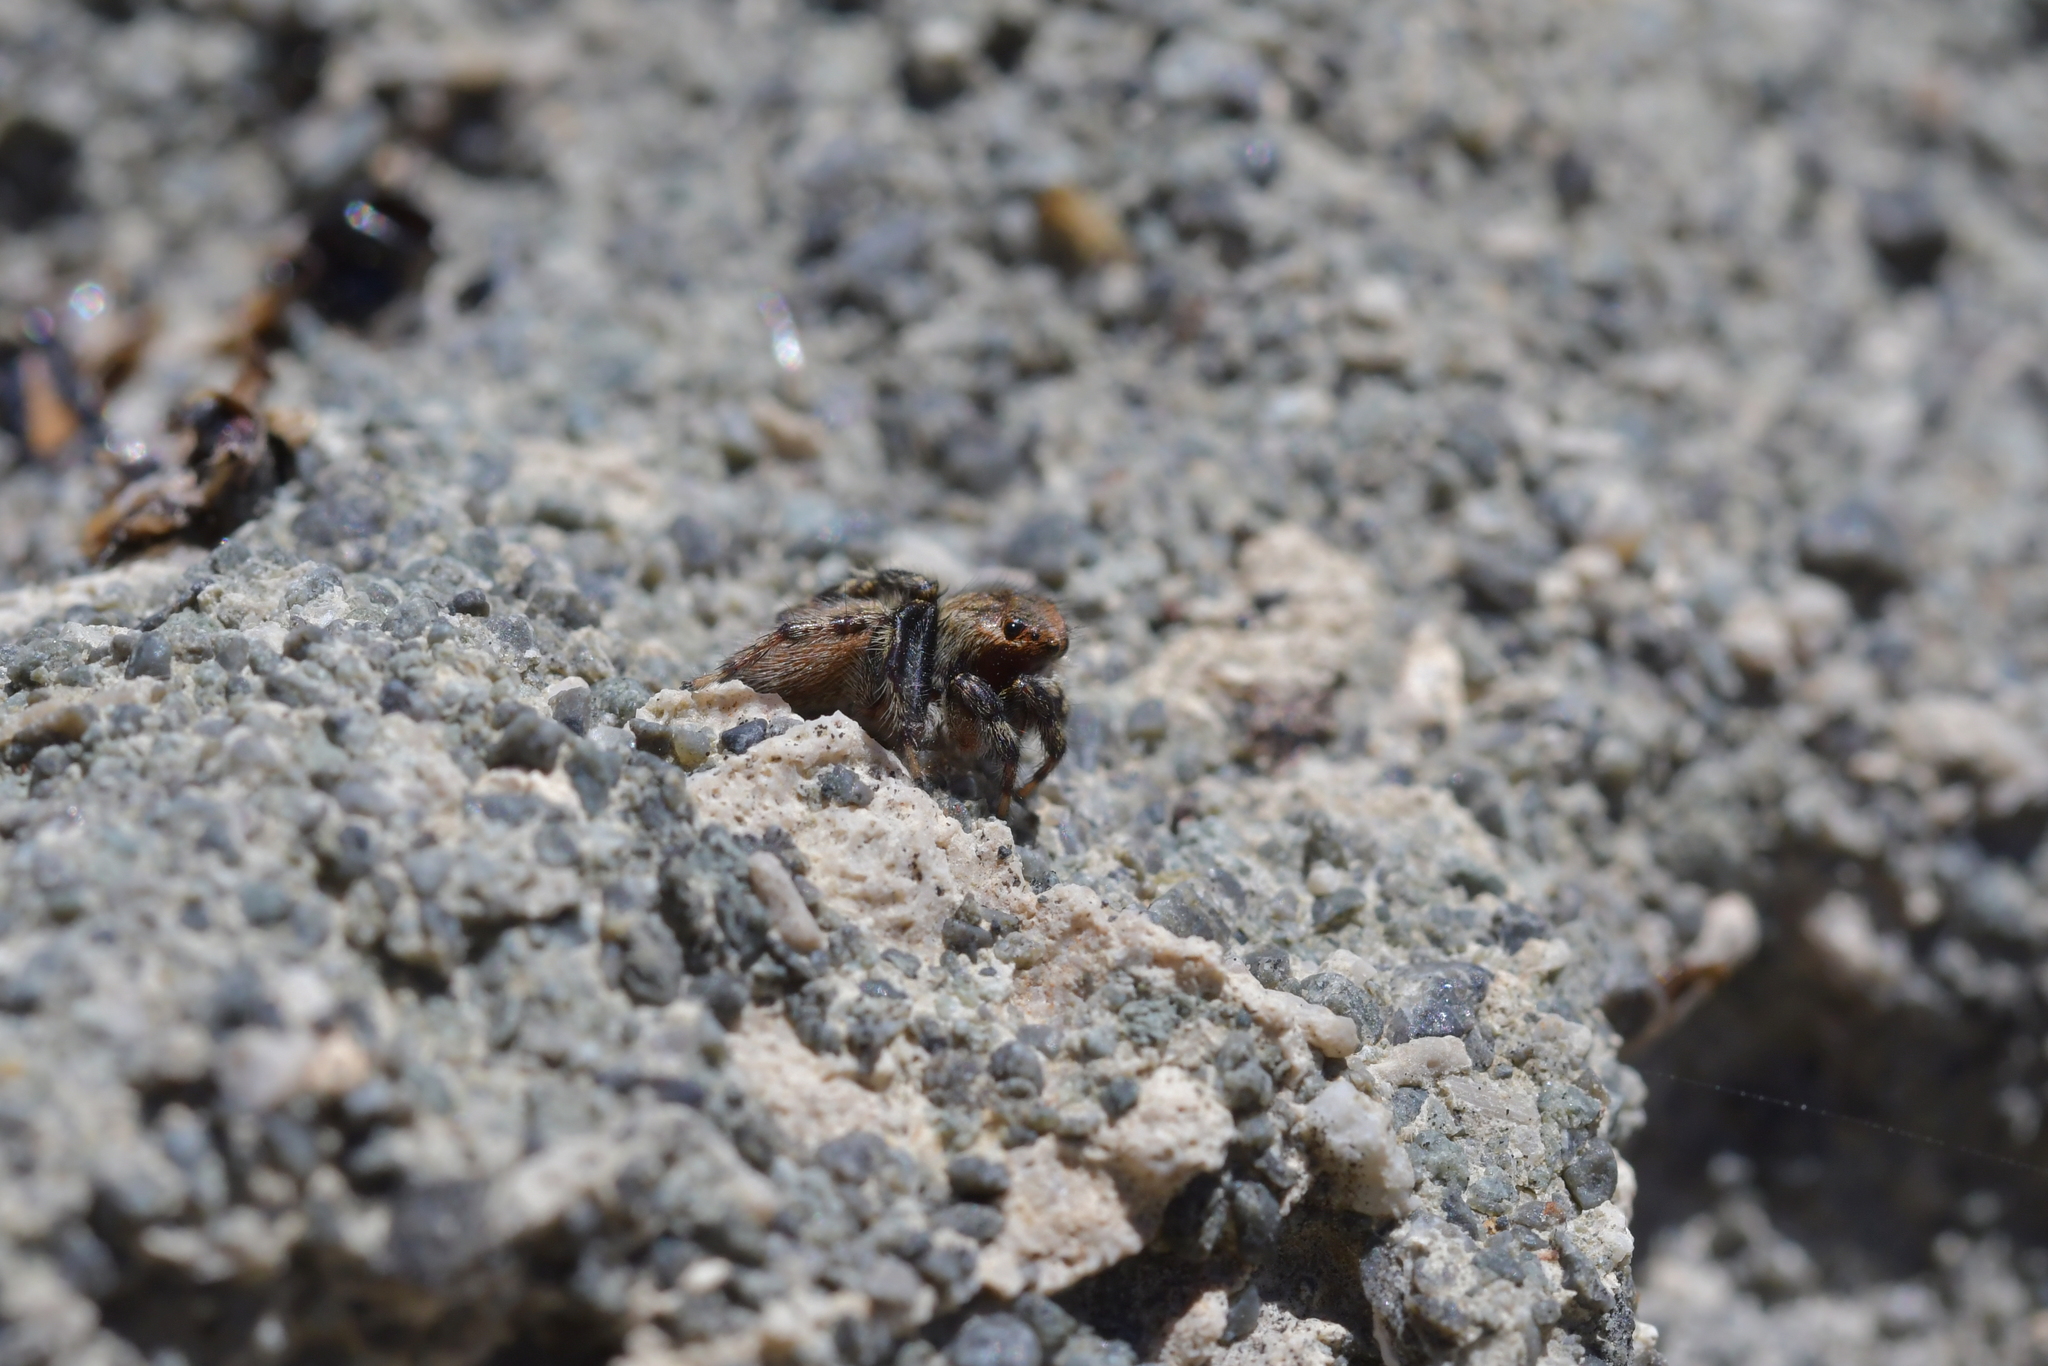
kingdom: Animalia
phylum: Arthropoda
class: Arachnida
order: Araneae
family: Salticidae
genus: Maratus
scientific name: Maratus griseus
